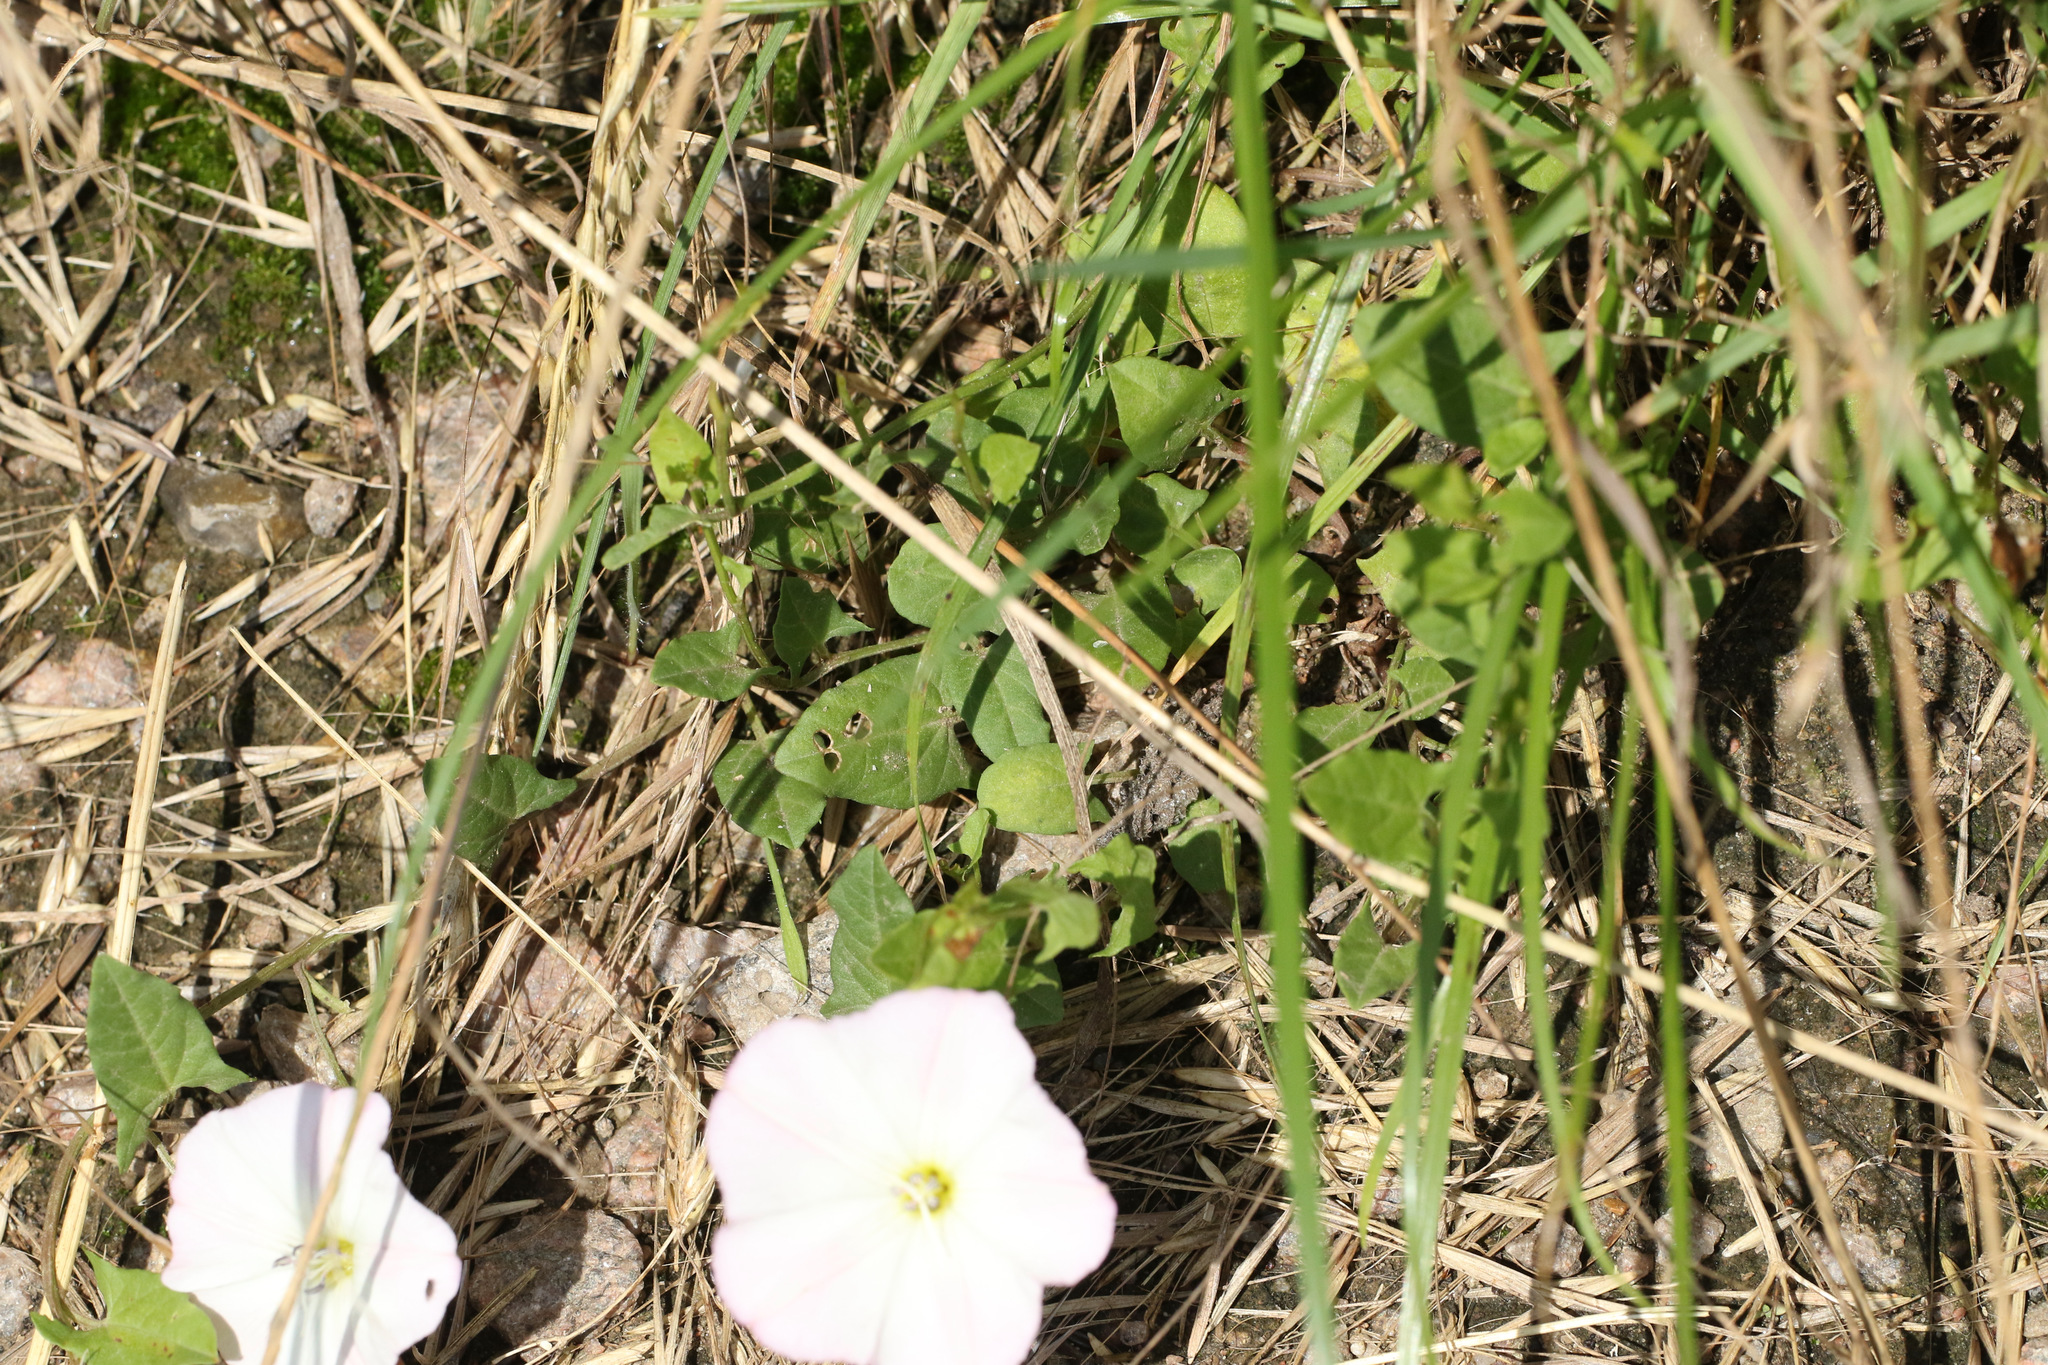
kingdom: Plantae
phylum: Tracheophyta
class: Magnoliopsida
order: Solanales
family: Convolvulaceae
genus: Convolvulus
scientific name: Convolvulus arvensis
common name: Field bindweed
